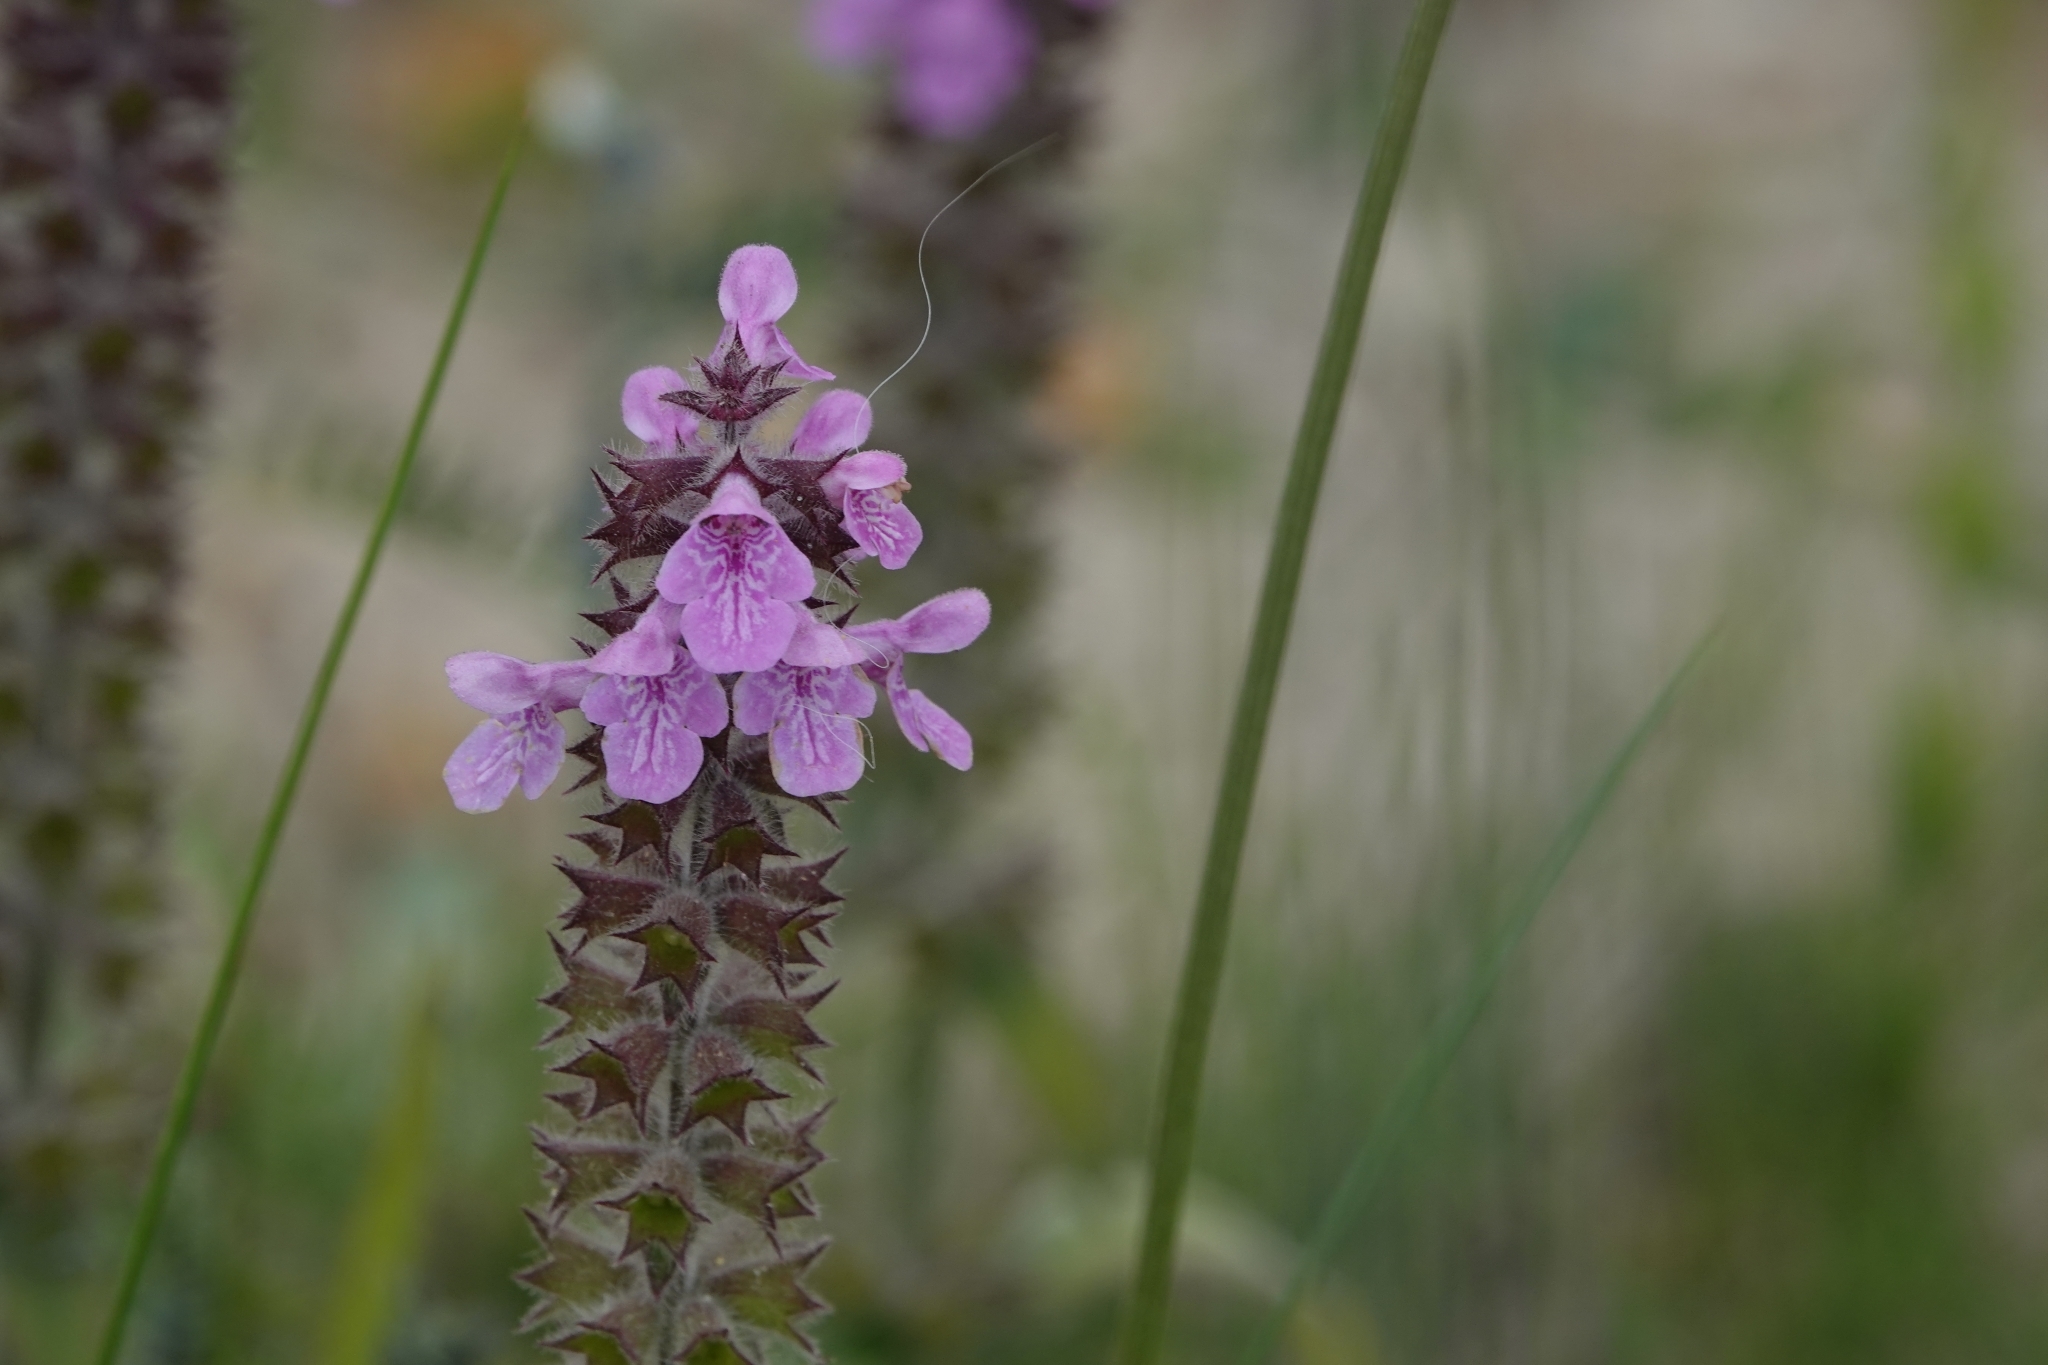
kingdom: Plantae
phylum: Tracheophyta
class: Magnoliopsida
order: Lamiales
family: Lamiaceae
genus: Stachys
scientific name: Stachys palustris
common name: Marsh woundwort
